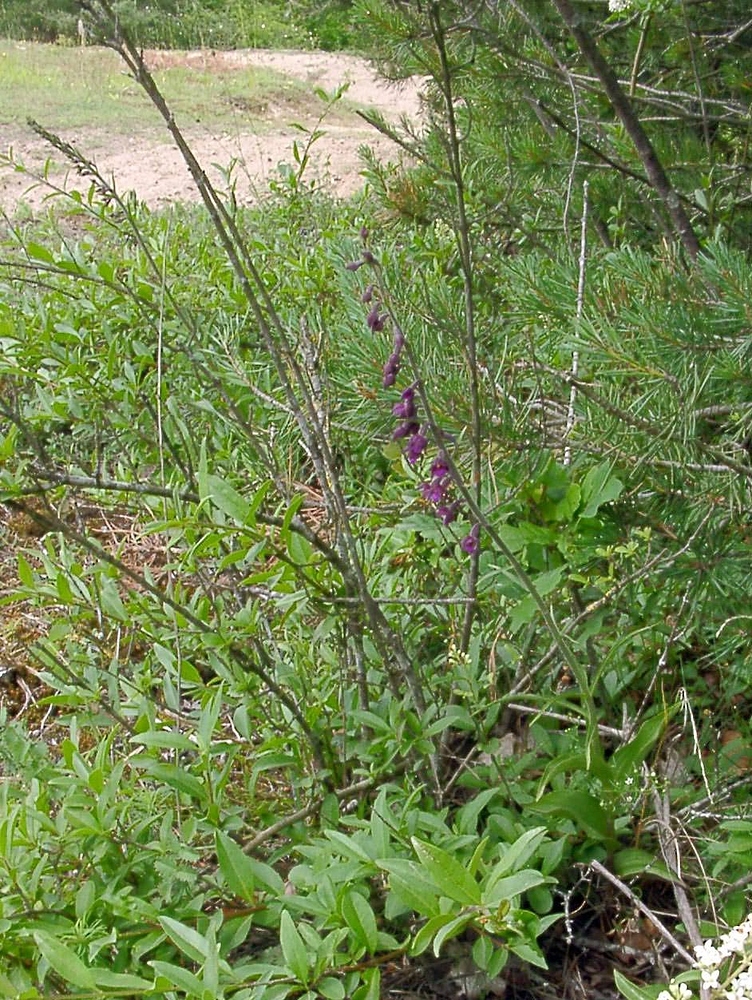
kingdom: Plantae
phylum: Tracheophyta
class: Liliopsida
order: Asparagales
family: Orchidaceae
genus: Epipactis
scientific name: Epipactis atrorubens
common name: Dark-red helleborine
